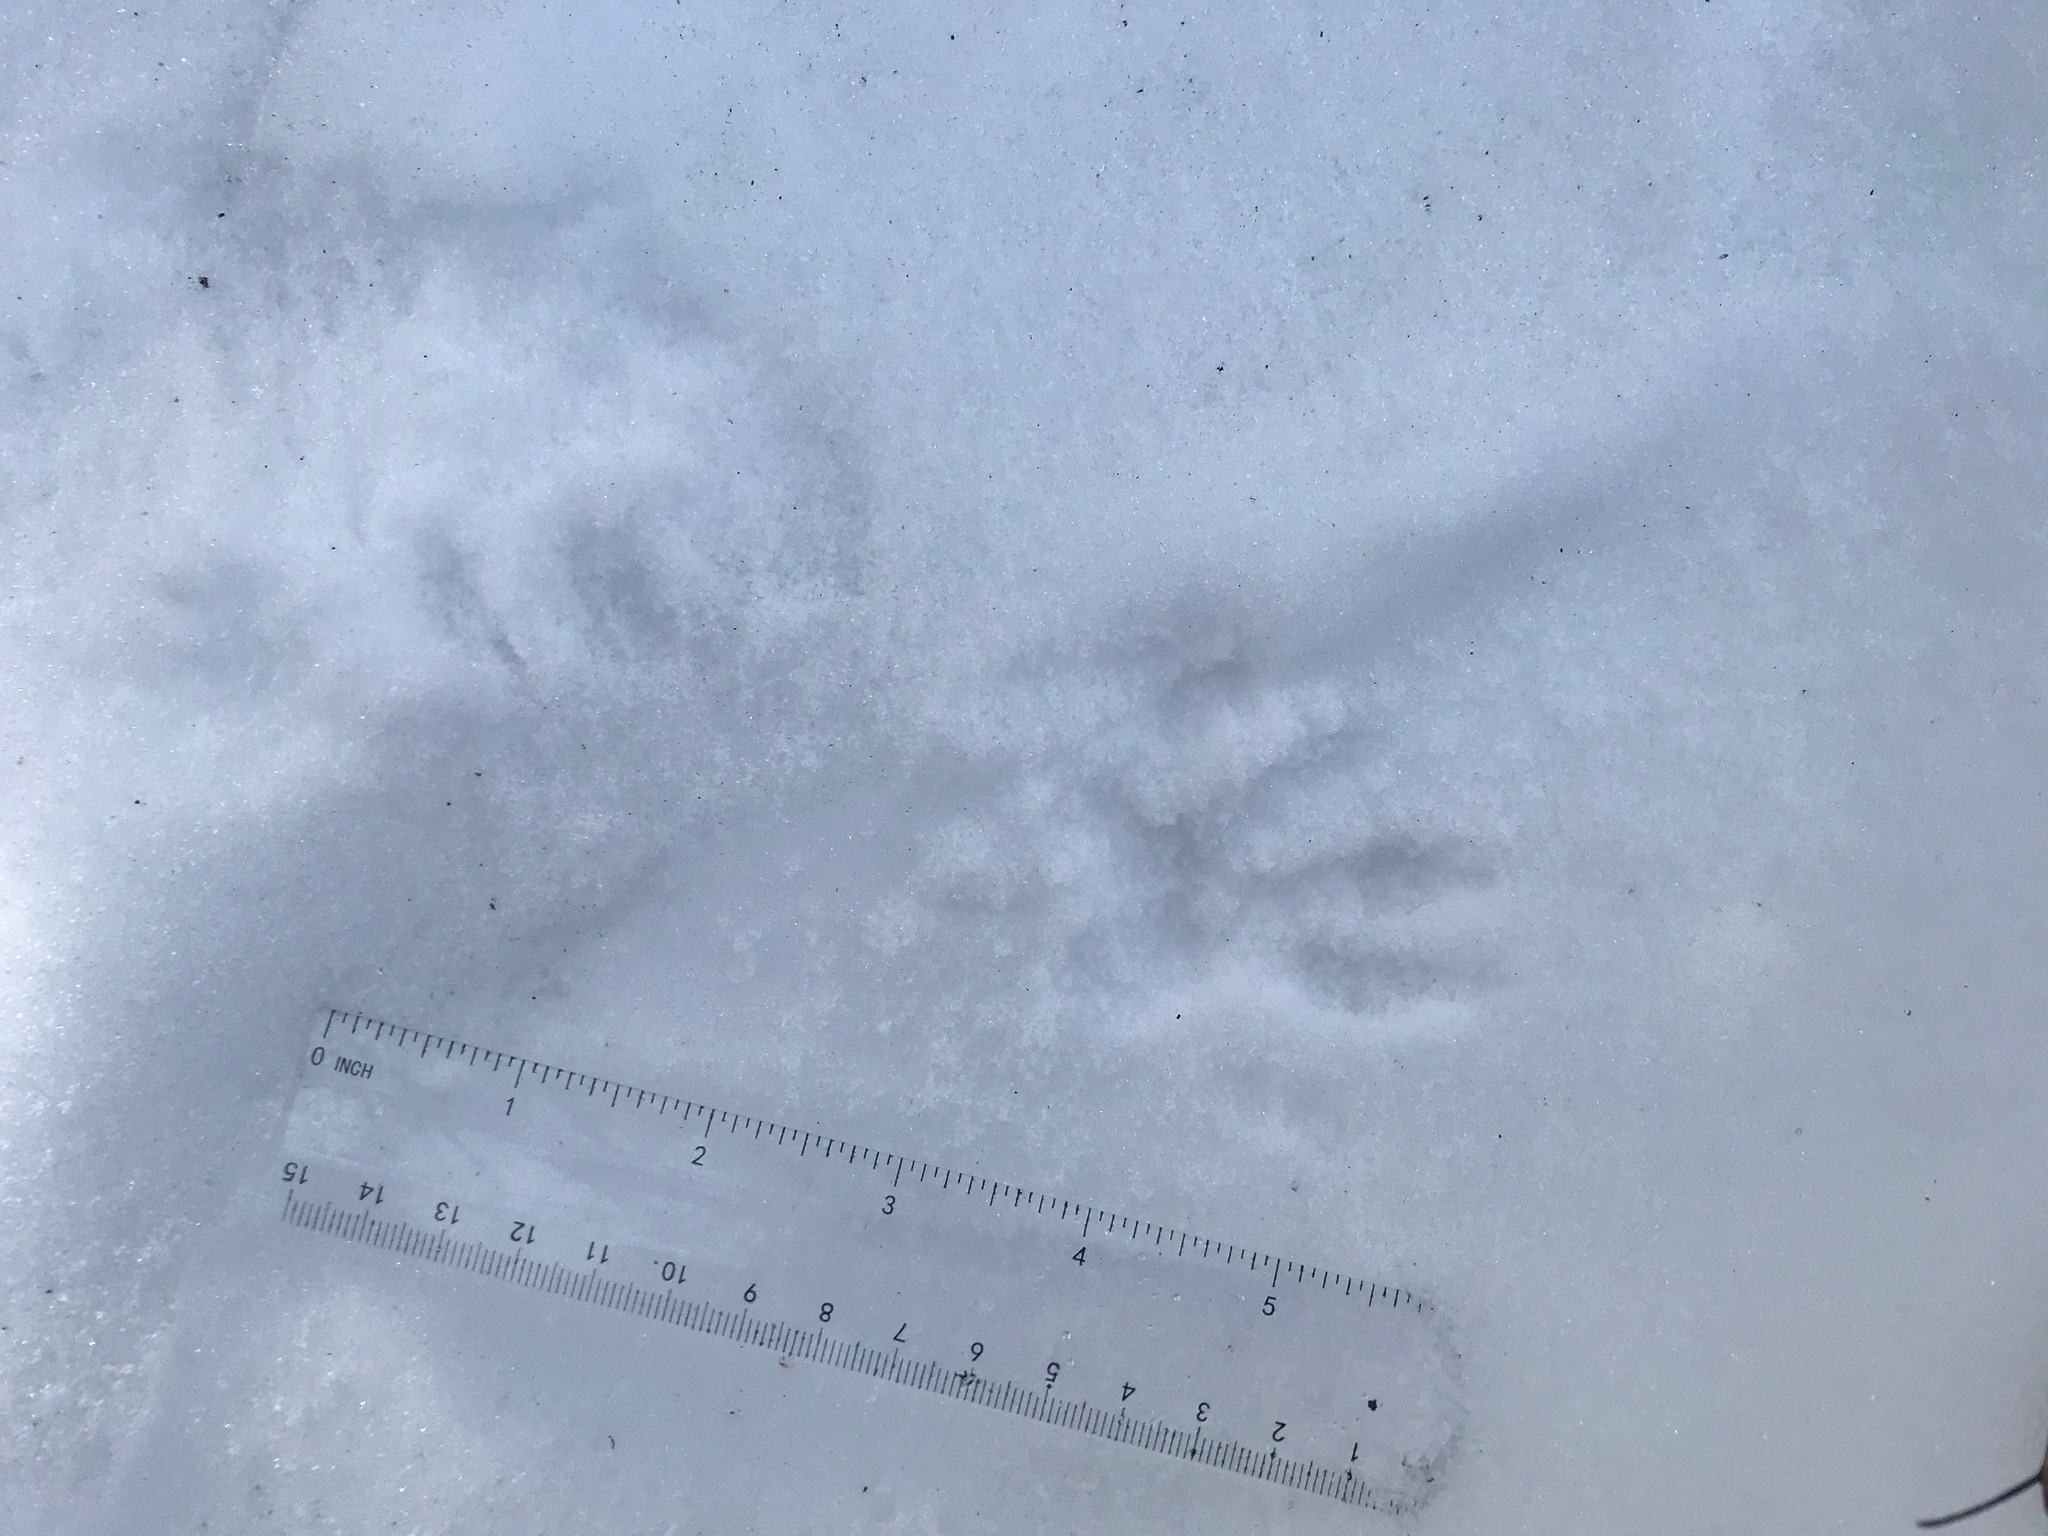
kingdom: Animalia
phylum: Chordata
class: Mammalia
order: Carnivora
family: Procyonidae
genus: Procyon
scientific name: Procyon lotor
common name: Raccoon
